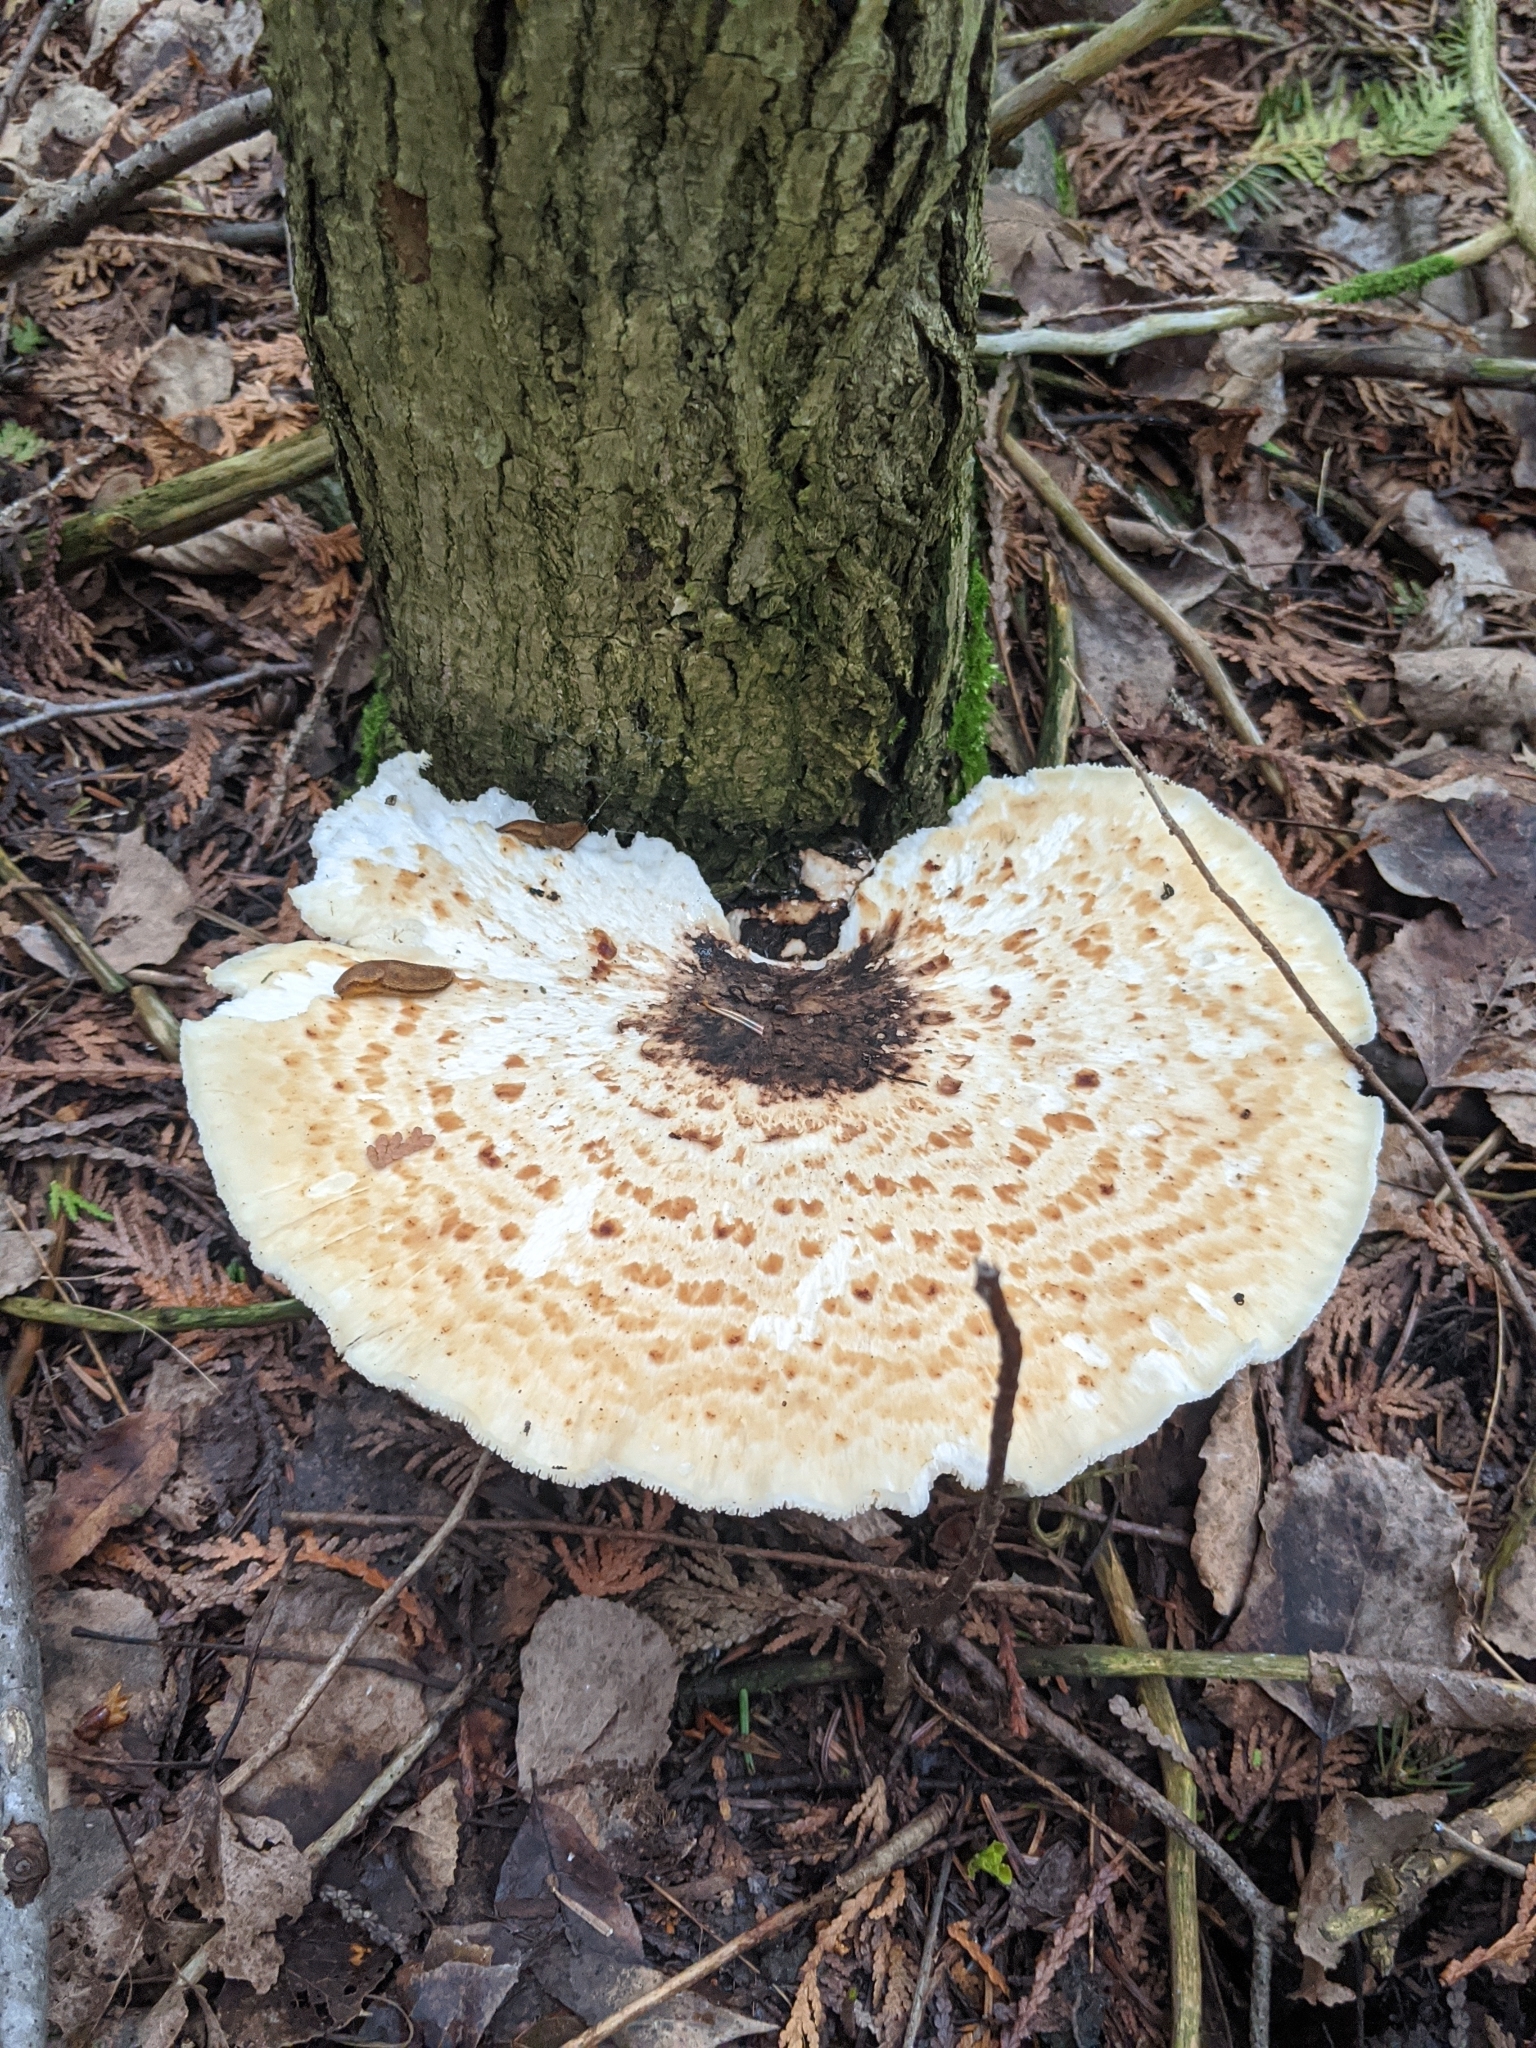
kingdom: Fungi
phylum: Basidiomycota
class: Agaricomycetes
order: Polyporales
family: Polyporaceae
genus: Cerioporus
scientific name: Cerioporus squamosus
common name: Dryad's saddle
